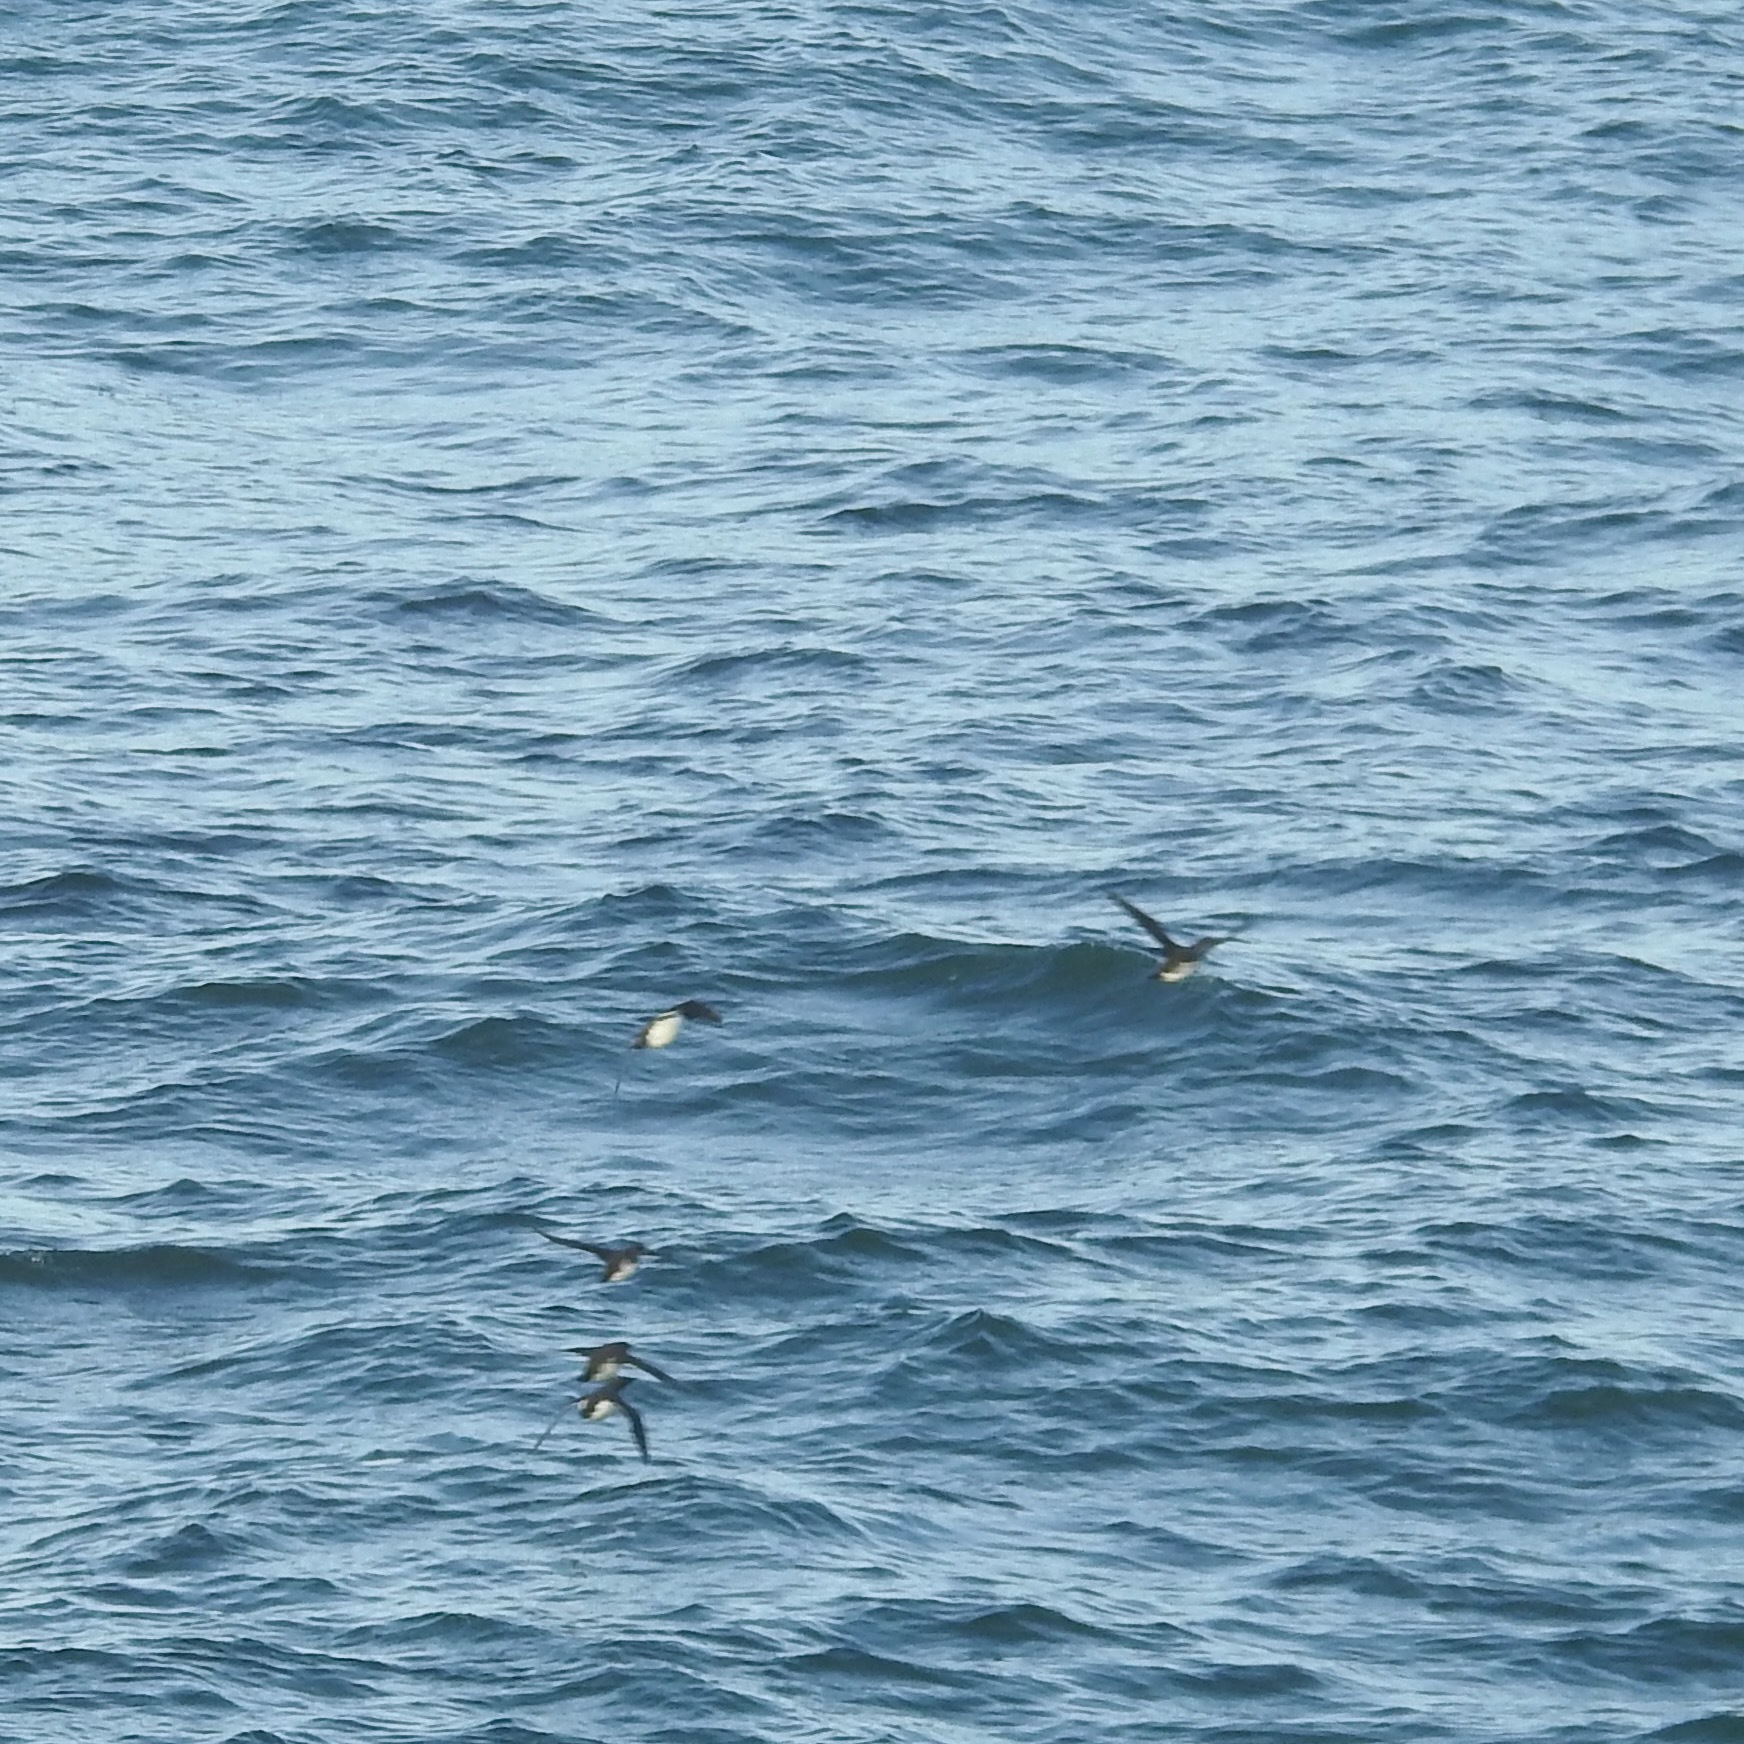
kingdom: Animalia
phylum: Chordata
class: Aves
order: Charadriiformes
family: Alcidae
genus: Uria
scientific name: Uria aalge
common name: Common murre
